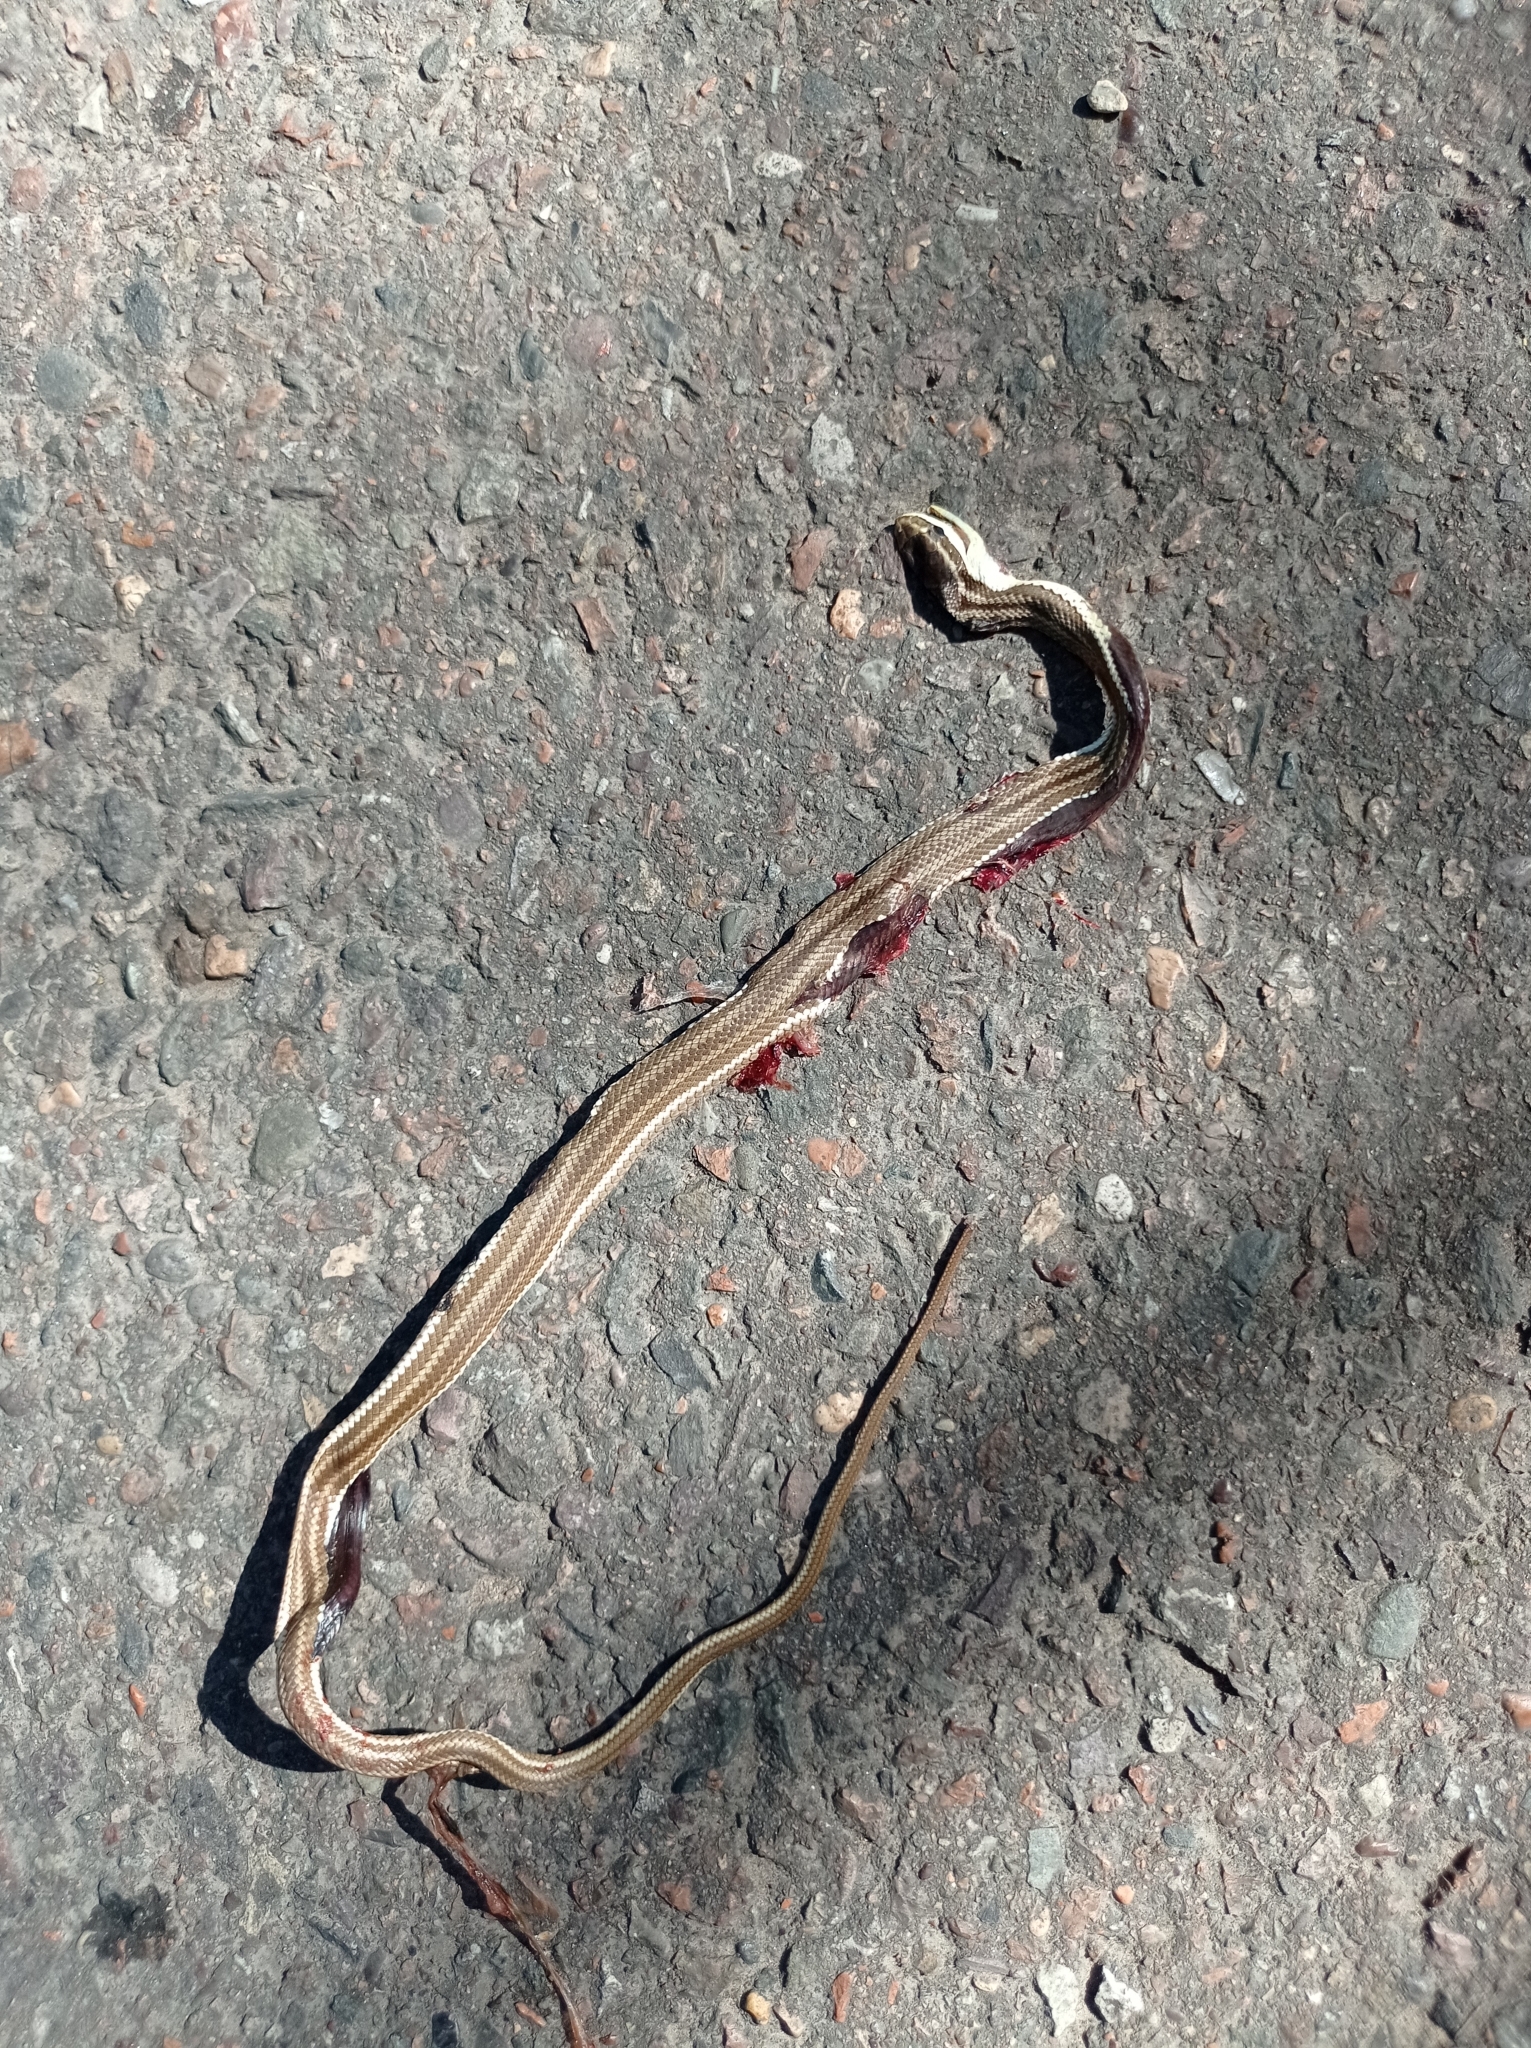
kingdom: Animalia
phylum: Chordata
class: Squamata
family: Colubridae
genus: Philodryas
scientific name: Philodryas trilineata
